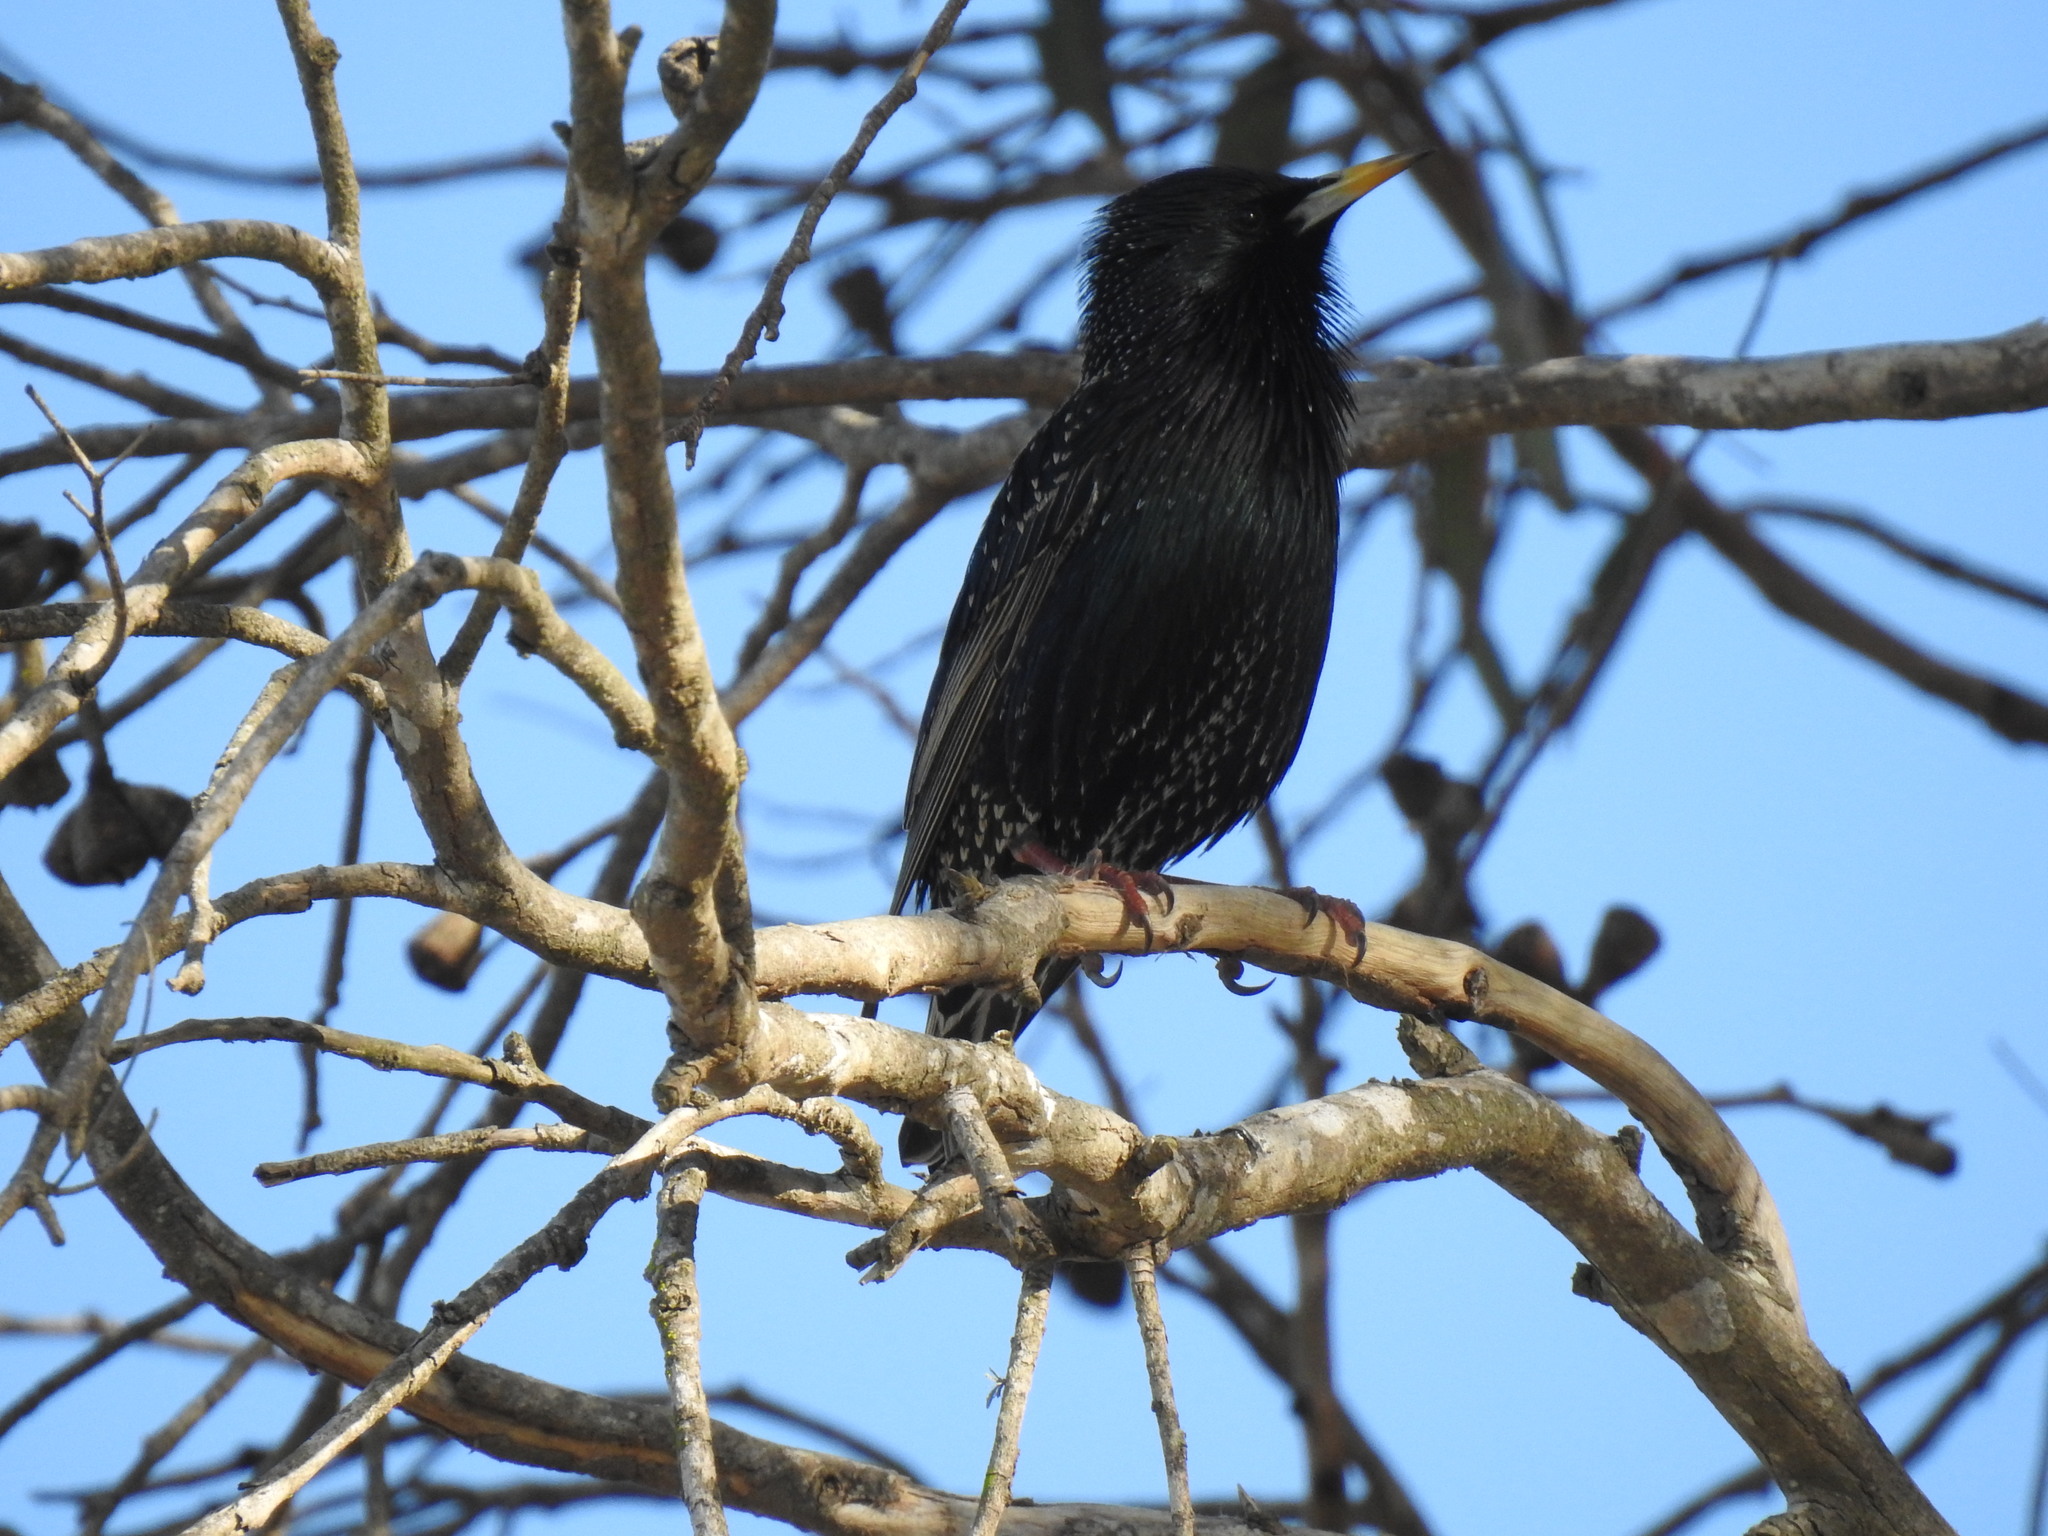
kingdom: Animalia
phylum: Chordata
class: Aves
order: Passeriformes
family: Sturnidae
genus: Sturnus
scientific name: Sturnus vulgaris
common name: Common starling
